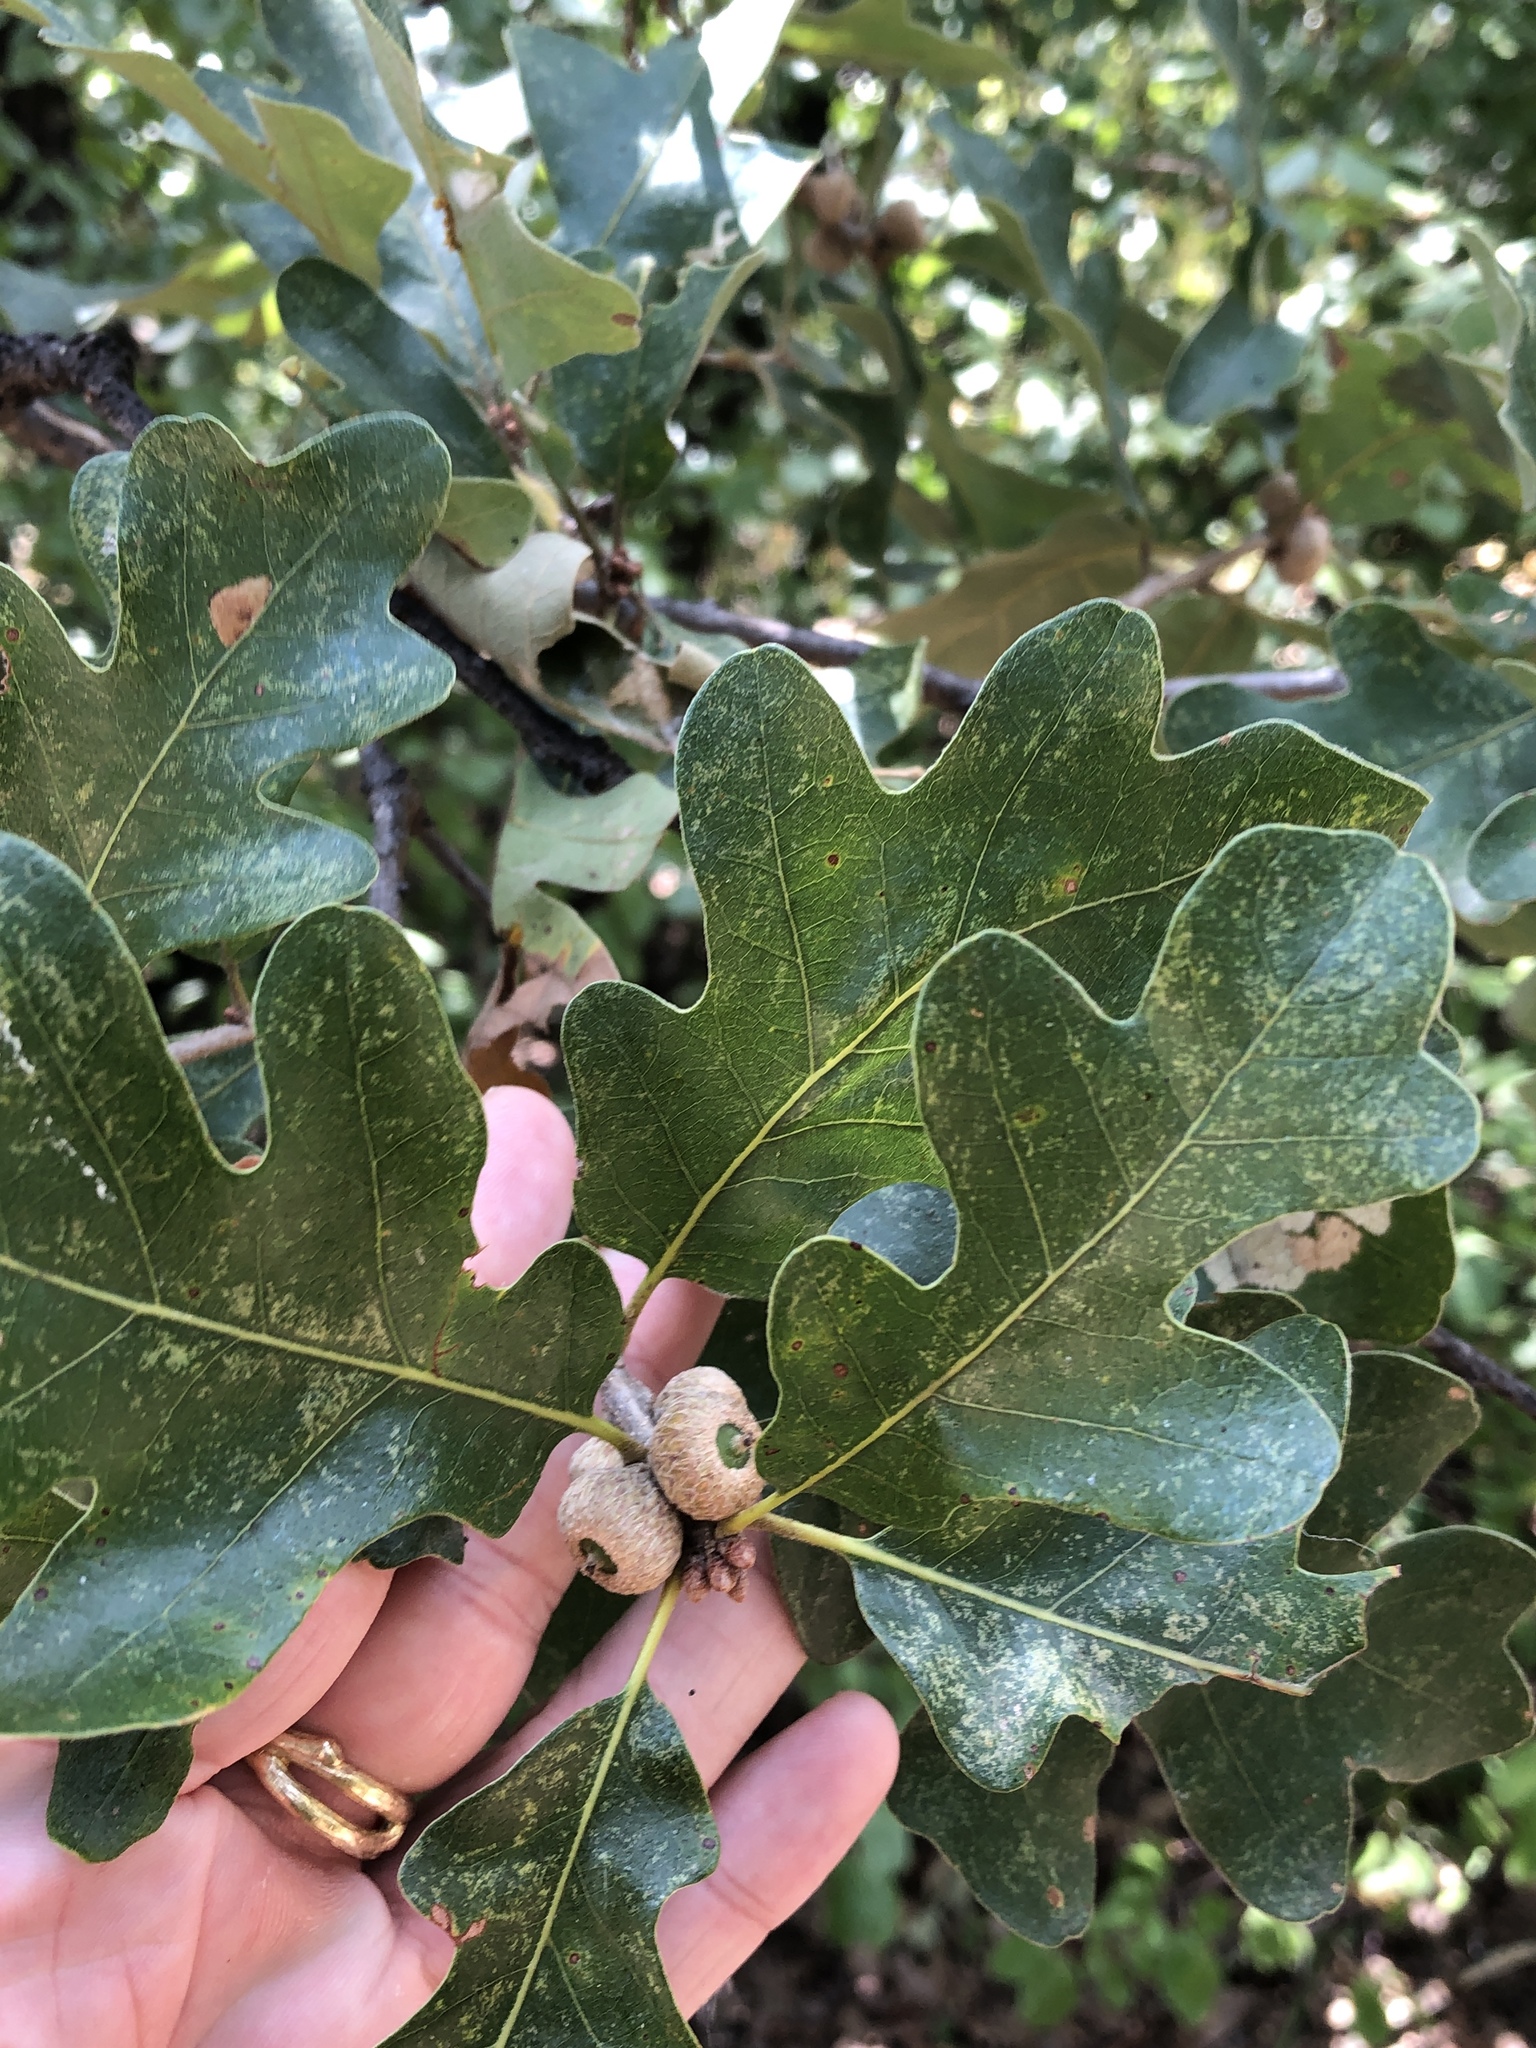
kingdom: Plantae
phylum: Tracheophyta
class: Magnoliopsida
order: Fagales
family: Fagaceae
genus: Quercus
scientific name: Quercus stellata
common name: Post oak
